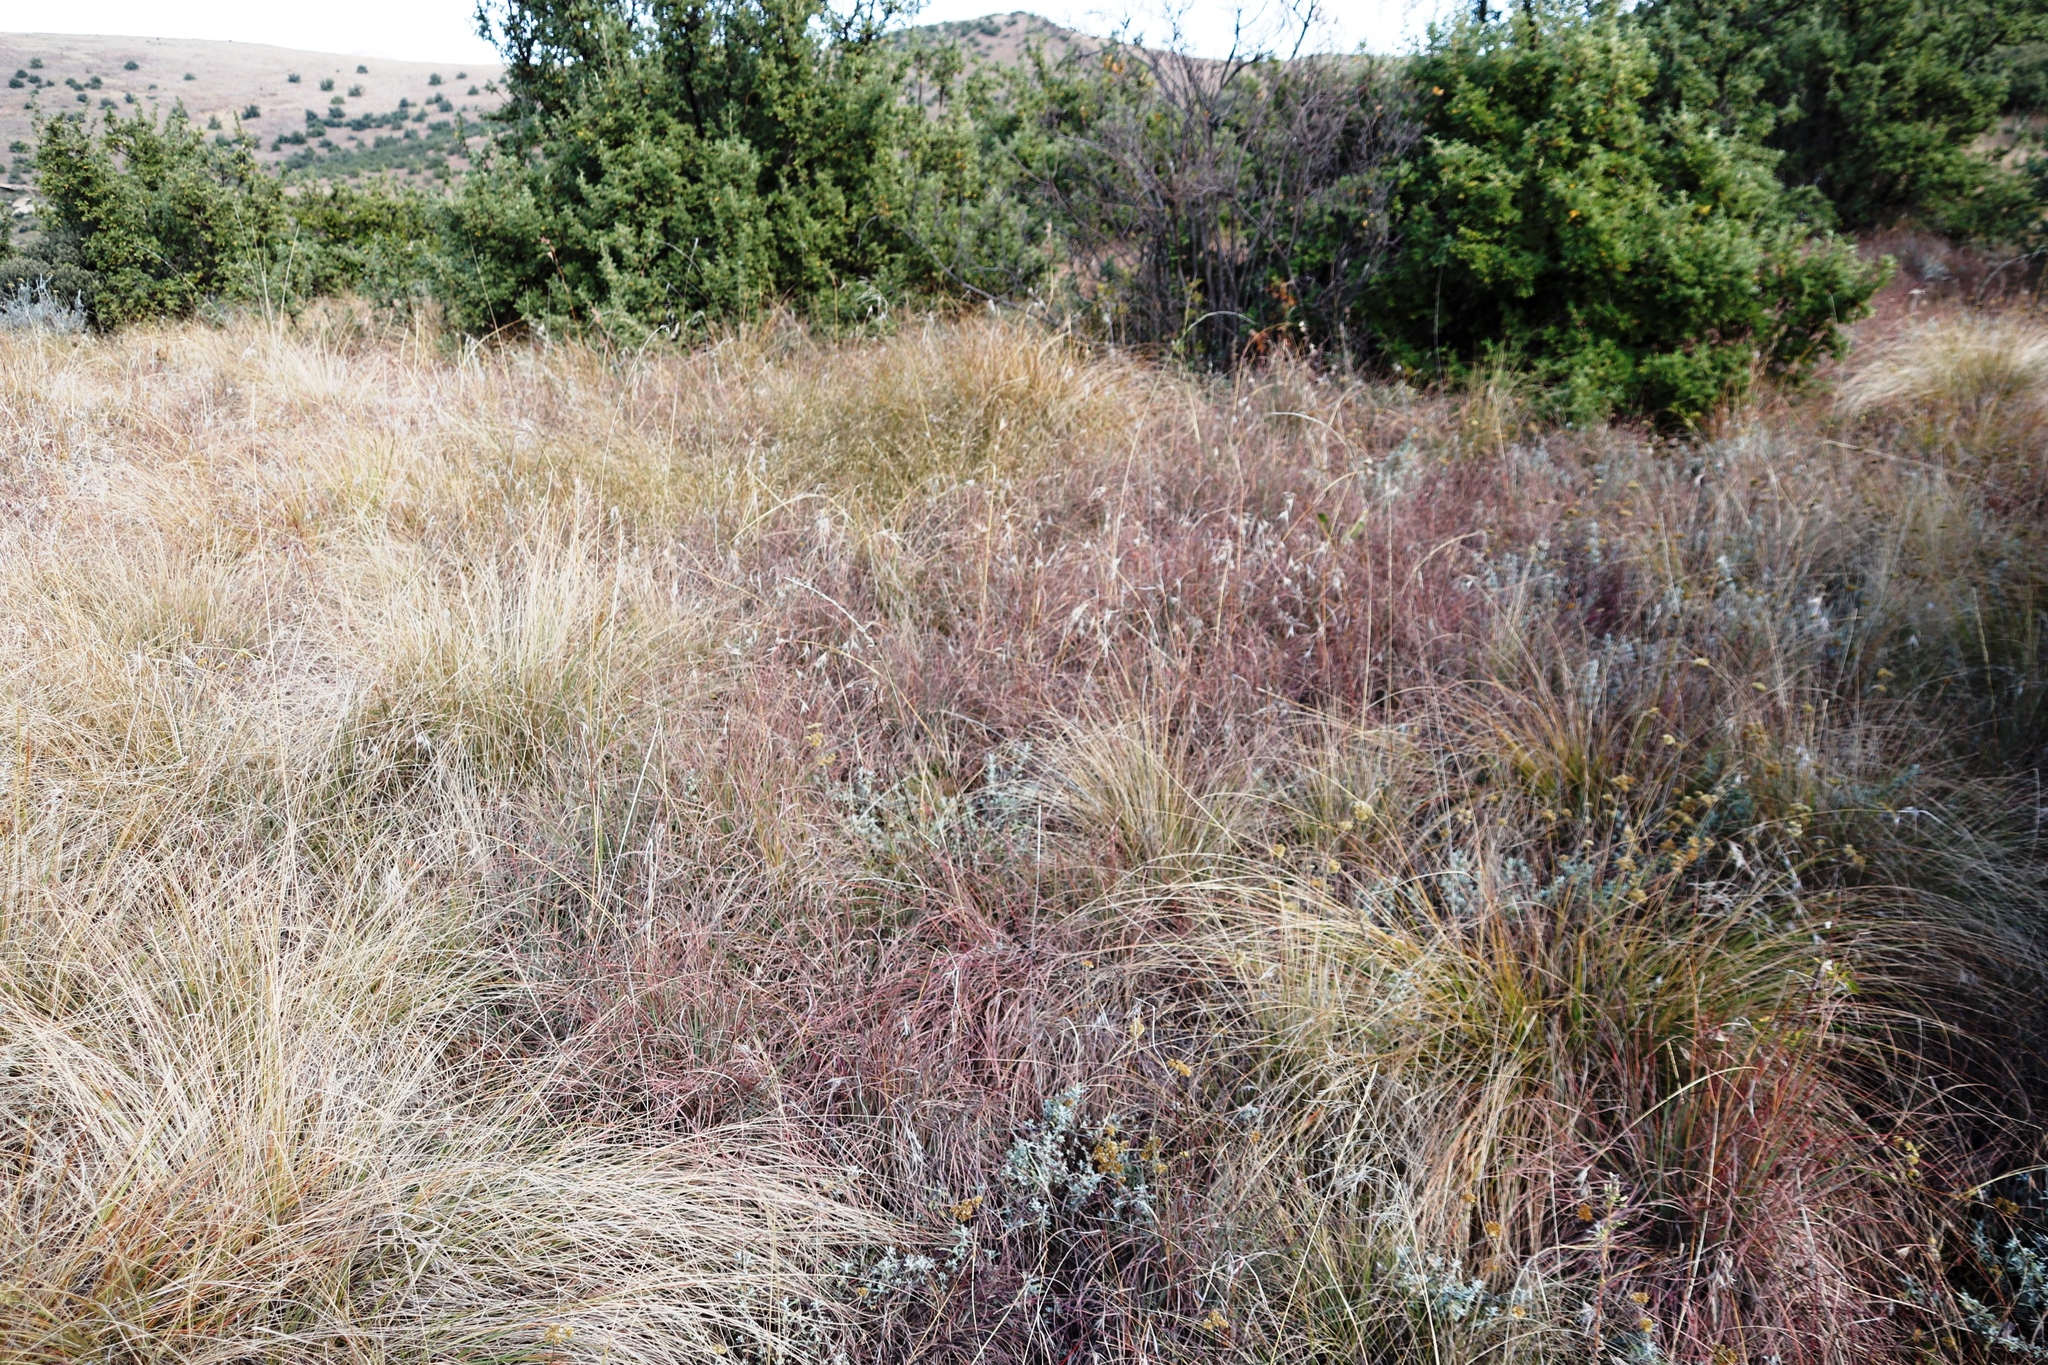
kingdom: Plantae
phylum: Tracheophyta
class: Liliopsida
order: Poales
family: Poaceae
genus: Cymbopogon
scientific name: Cymbopogon pospischilii
